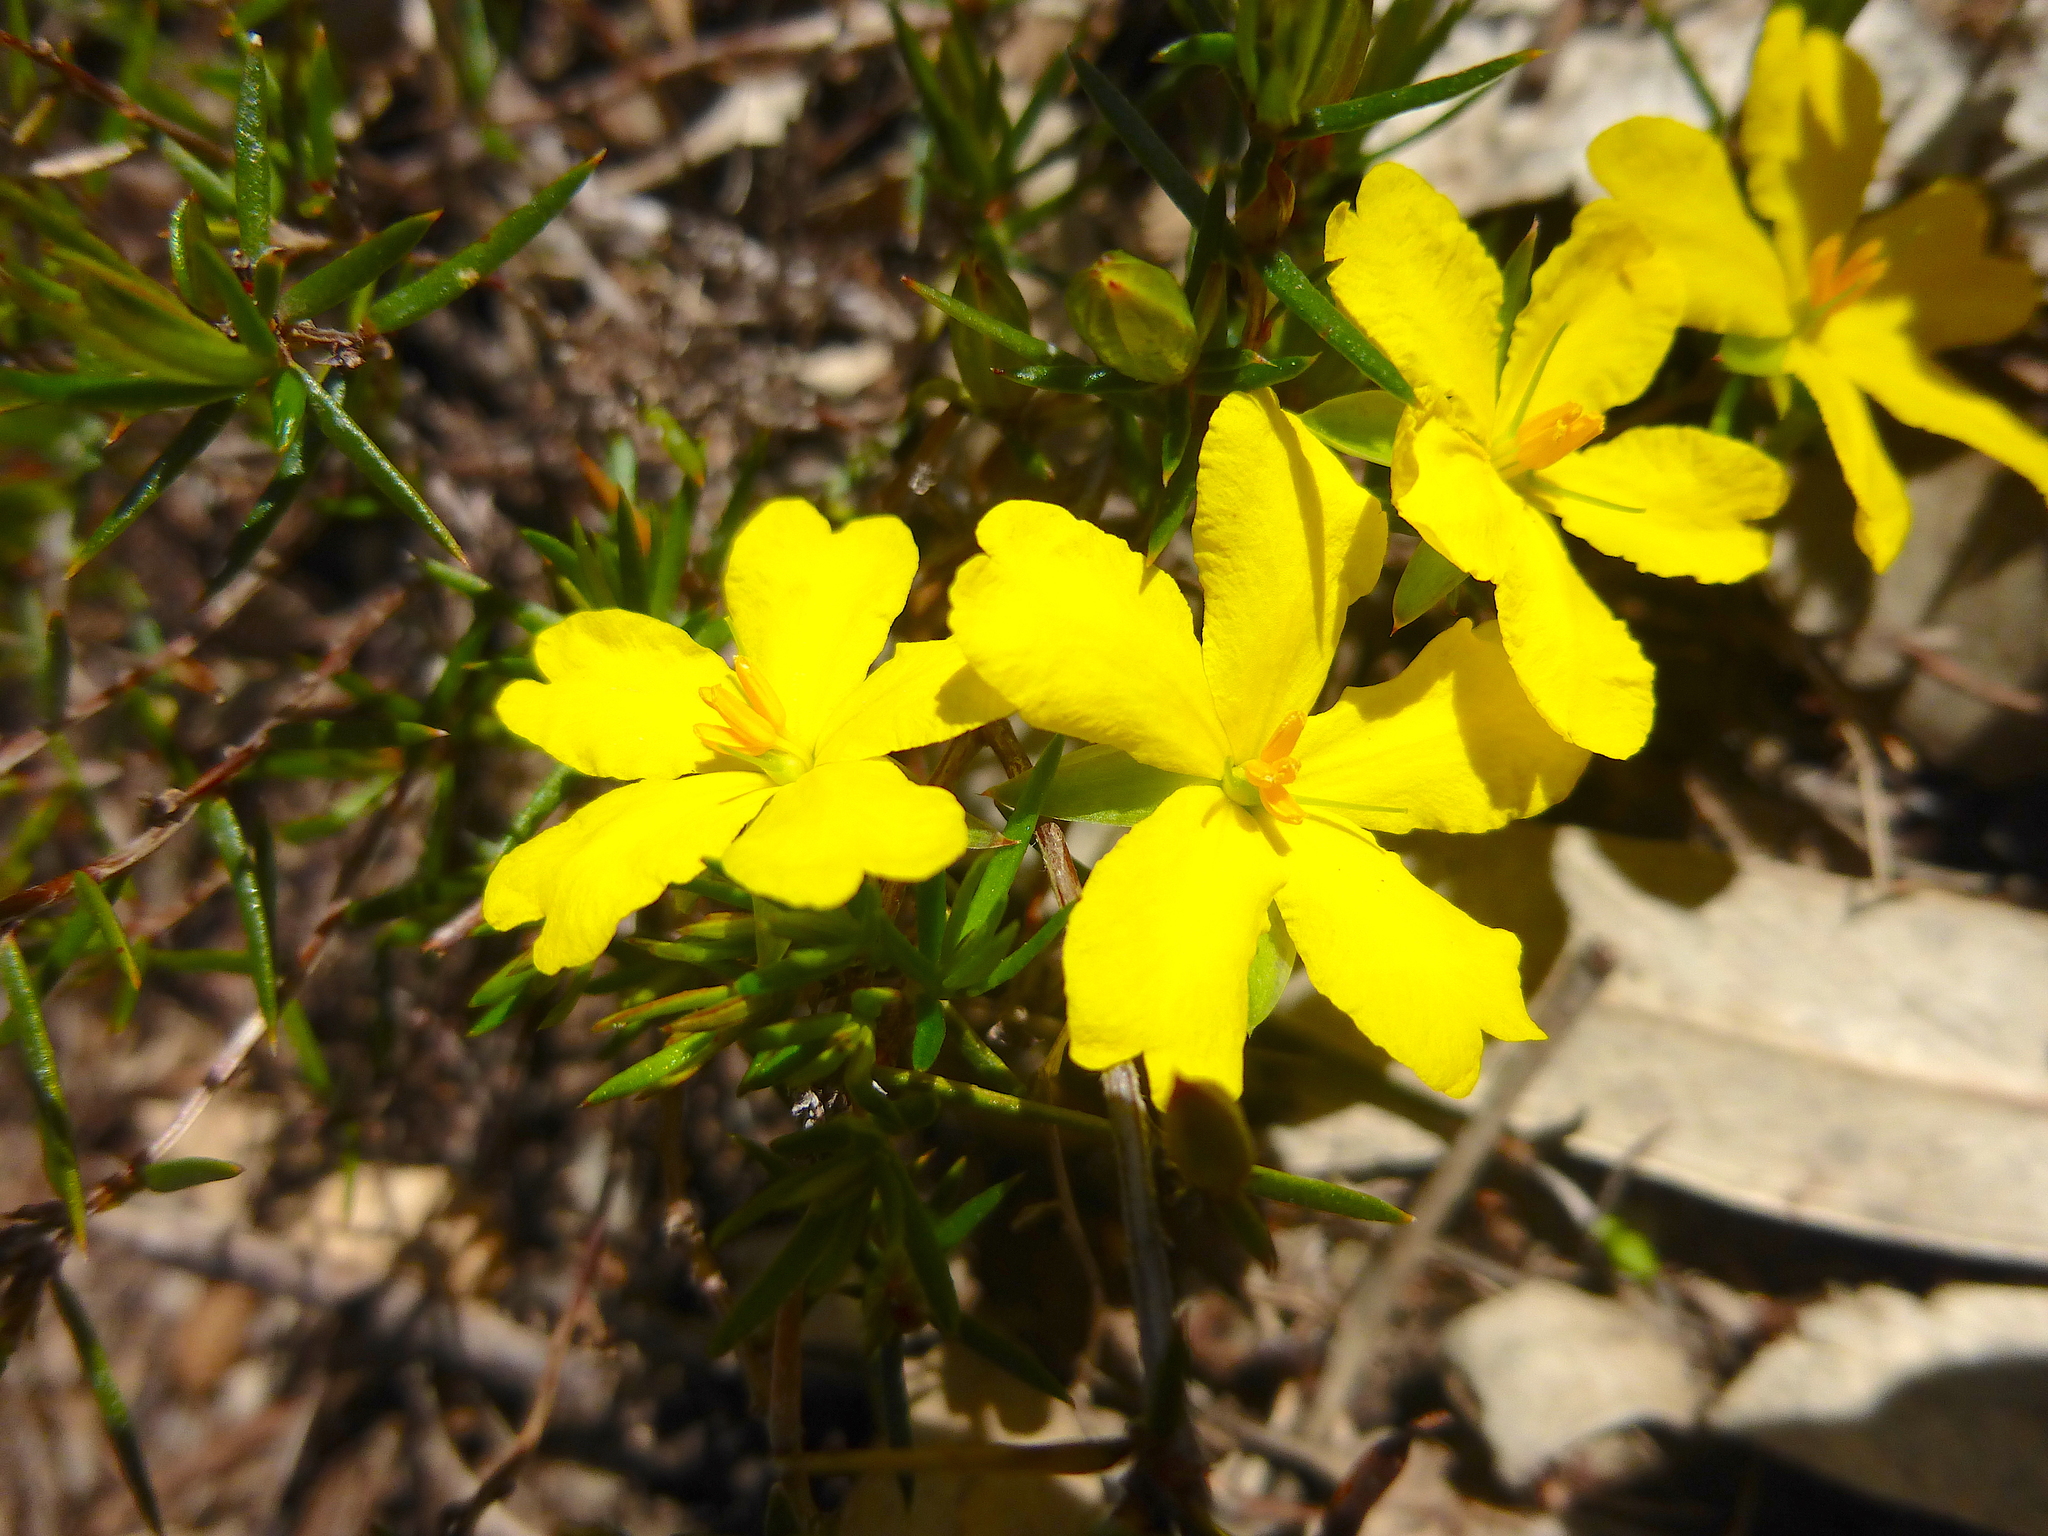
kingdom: Plantae
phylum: Tracheophyta
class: Magnoliopsida
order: Dilleniales
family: Dilleniaceae
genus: Hibbertia
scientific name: Hibbertia exutiacies
